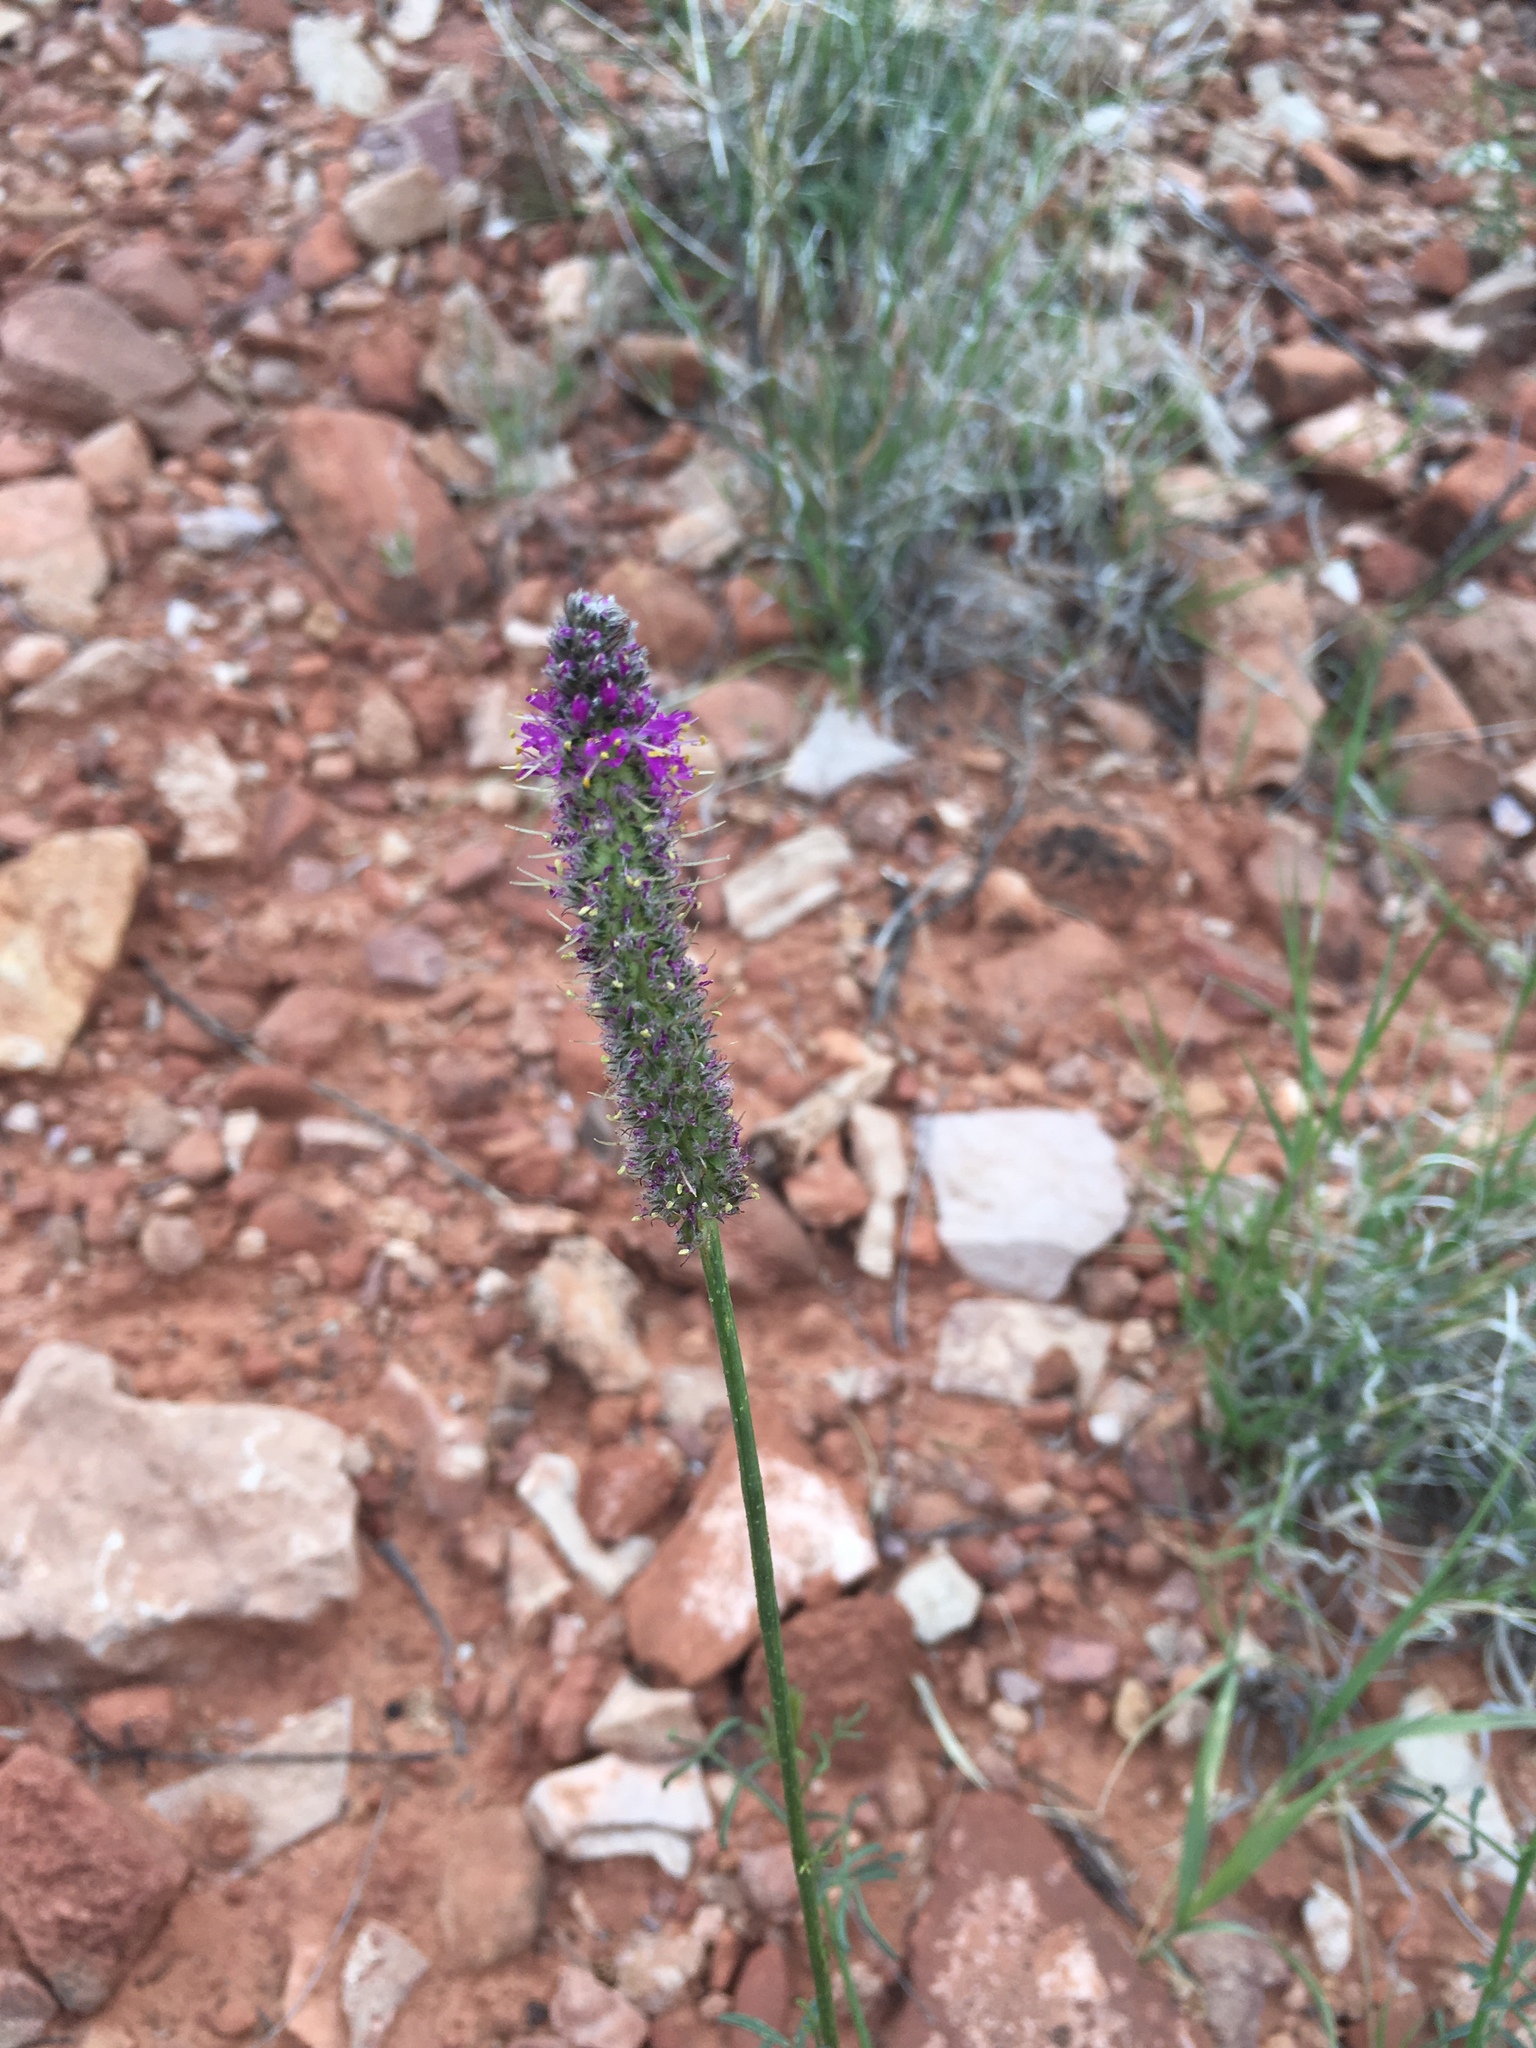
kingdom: Plantae
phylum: Tracheophyta
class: Magnoliopsida
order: Fabales
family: Fabaceae
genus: Dalea
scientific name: Dalea searlsiae
